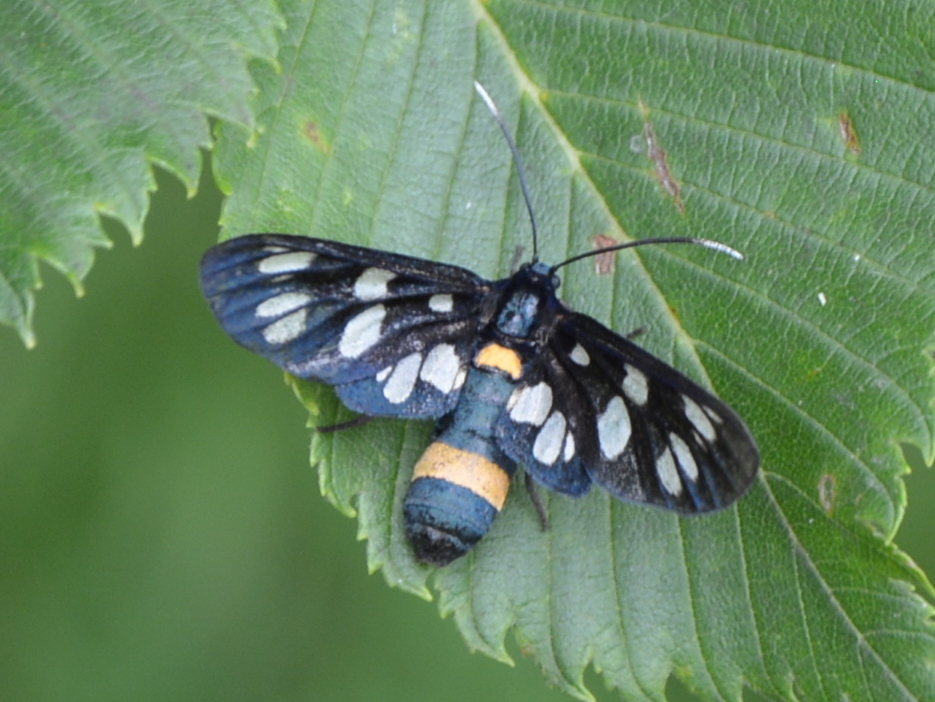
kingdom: Animalia
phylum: Arthropoda
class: Insecta
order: Lepidoptera
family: Erebidae
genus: Amata
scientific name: Amata phegea
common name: Nine-spotted
